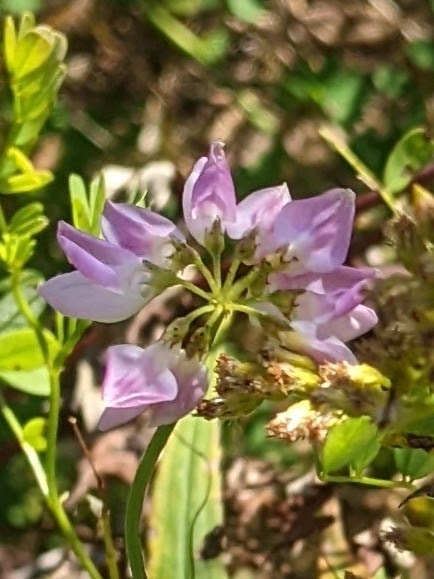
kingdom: Plantae
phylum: Tracheophyta
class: Magnoliopsida
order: Fabales
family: Fabaceae
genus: Coronilla
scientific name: Coronilla varia
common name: Crownvetch
